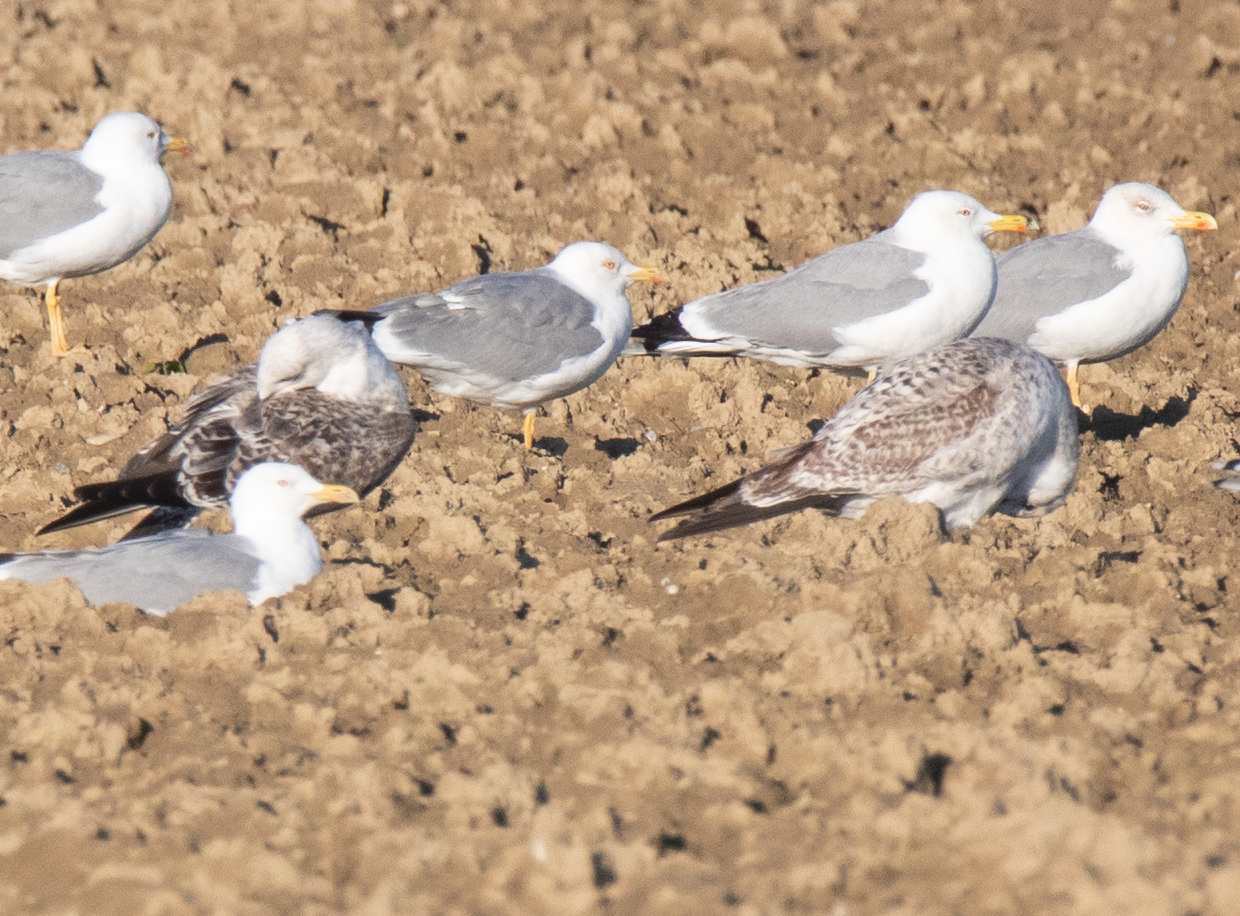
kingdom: Animalia
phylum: Chordata
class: Aves
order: Charadriiformes
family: Laridae
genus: Larus
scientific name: Larus michahellis
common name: Yellow-legged gull
